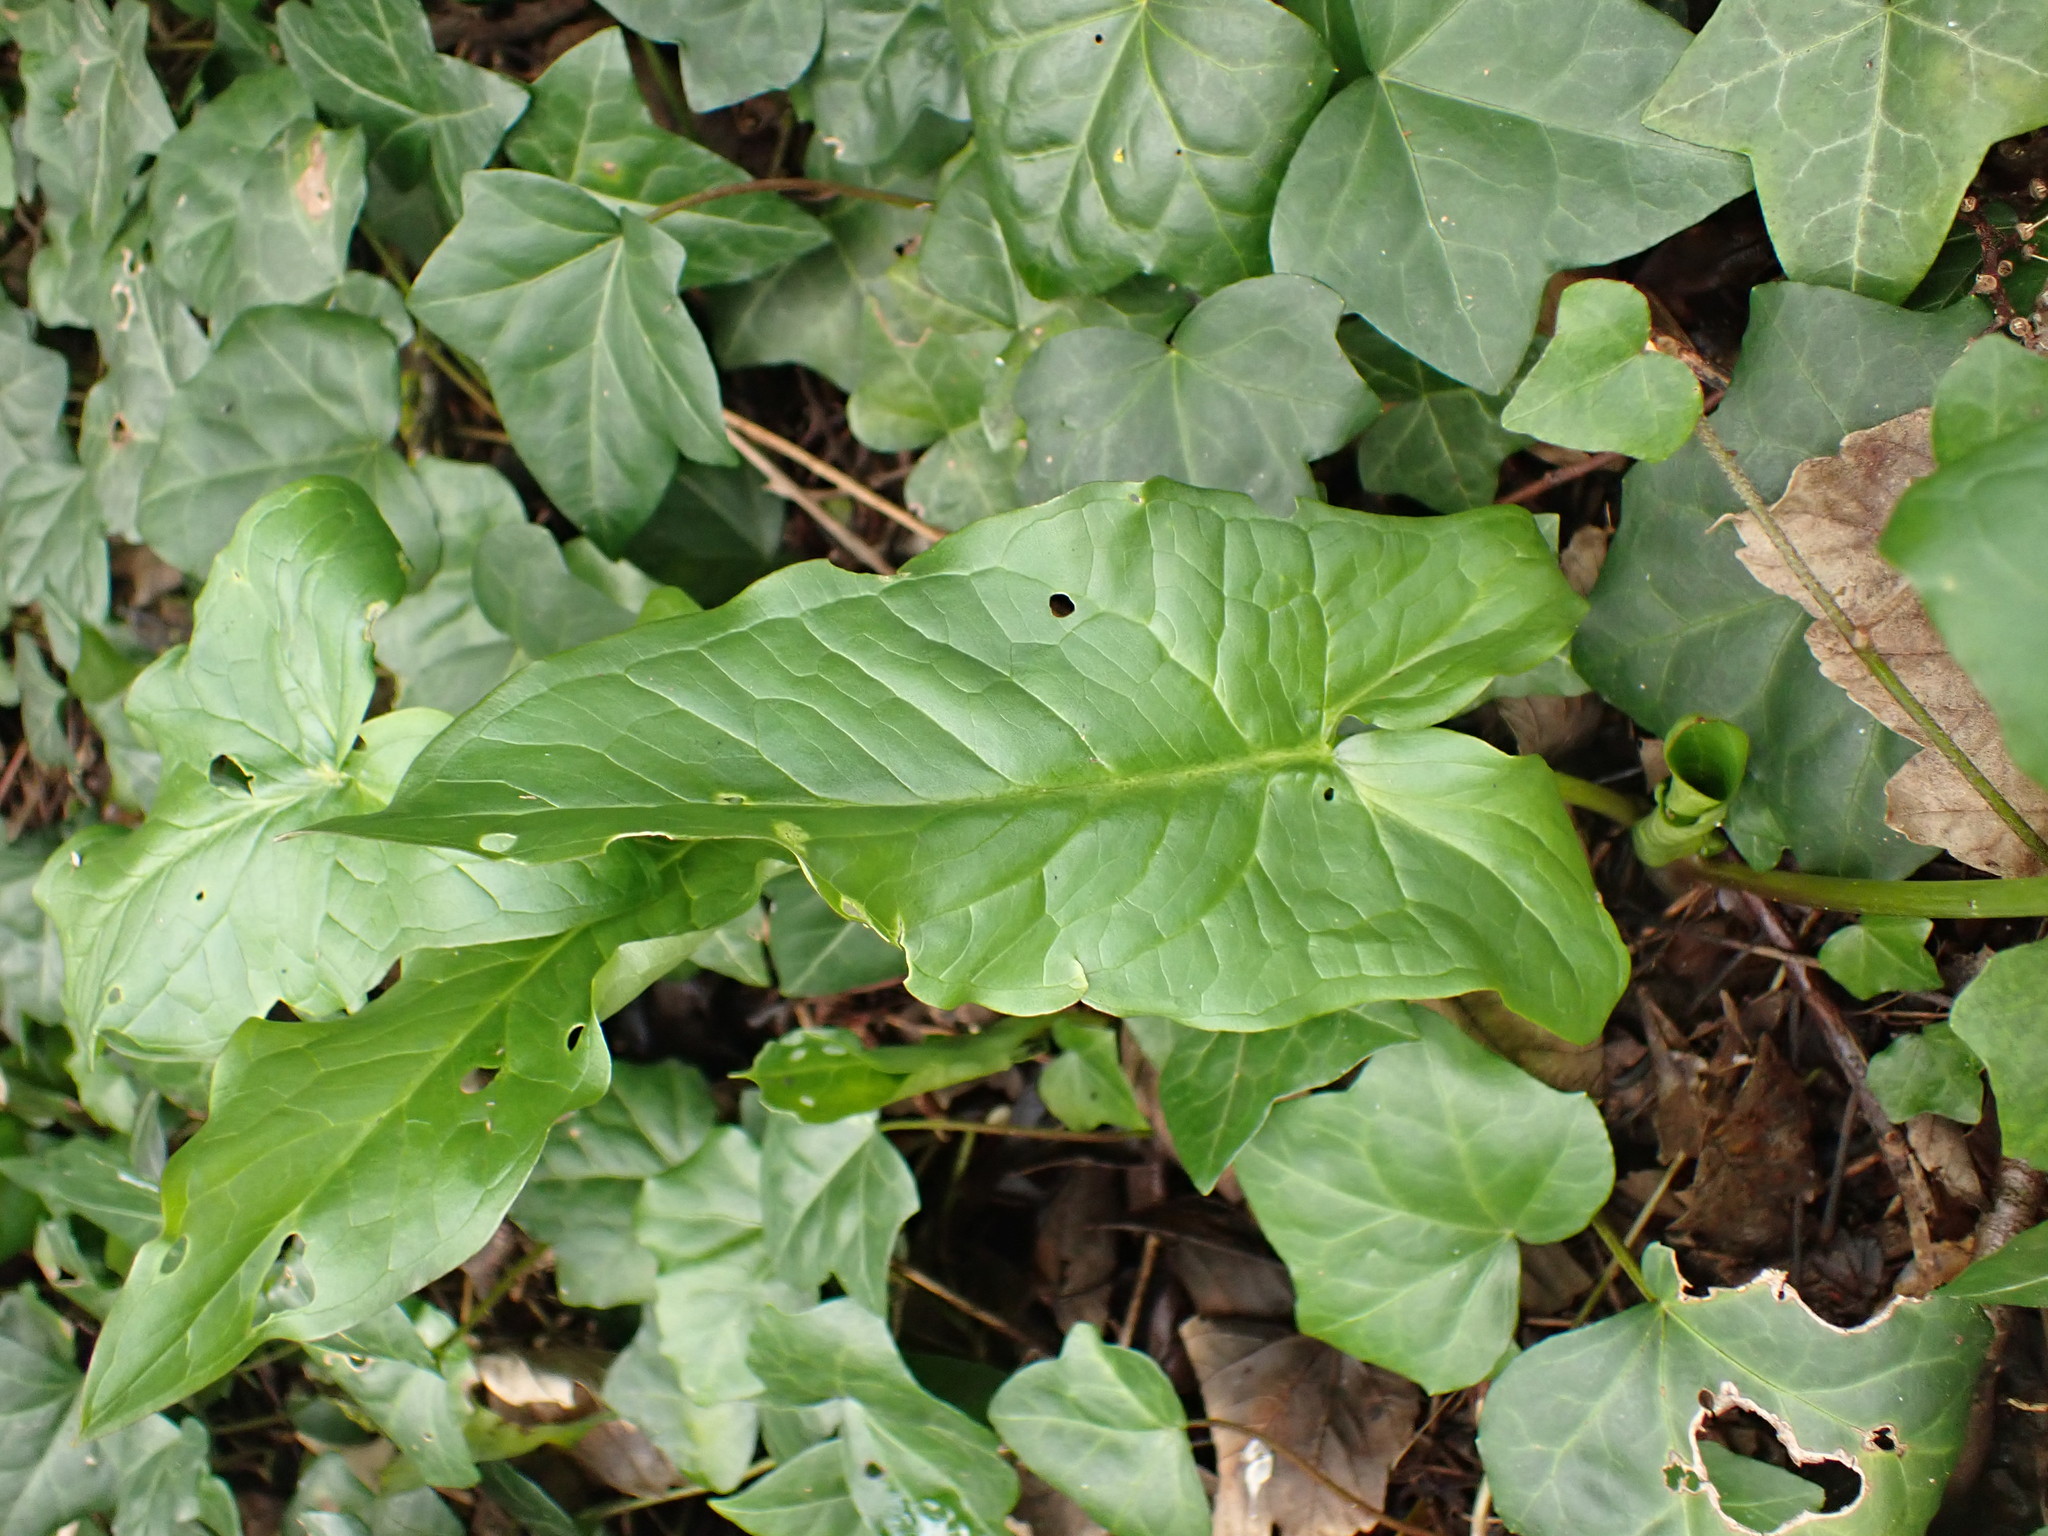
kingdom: Plantae
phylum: Tracheophyta
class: Liliopsida
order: Alismatales
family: Araceae
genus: Arum
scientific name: Arum maculatum
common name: Lords-and-ladies
